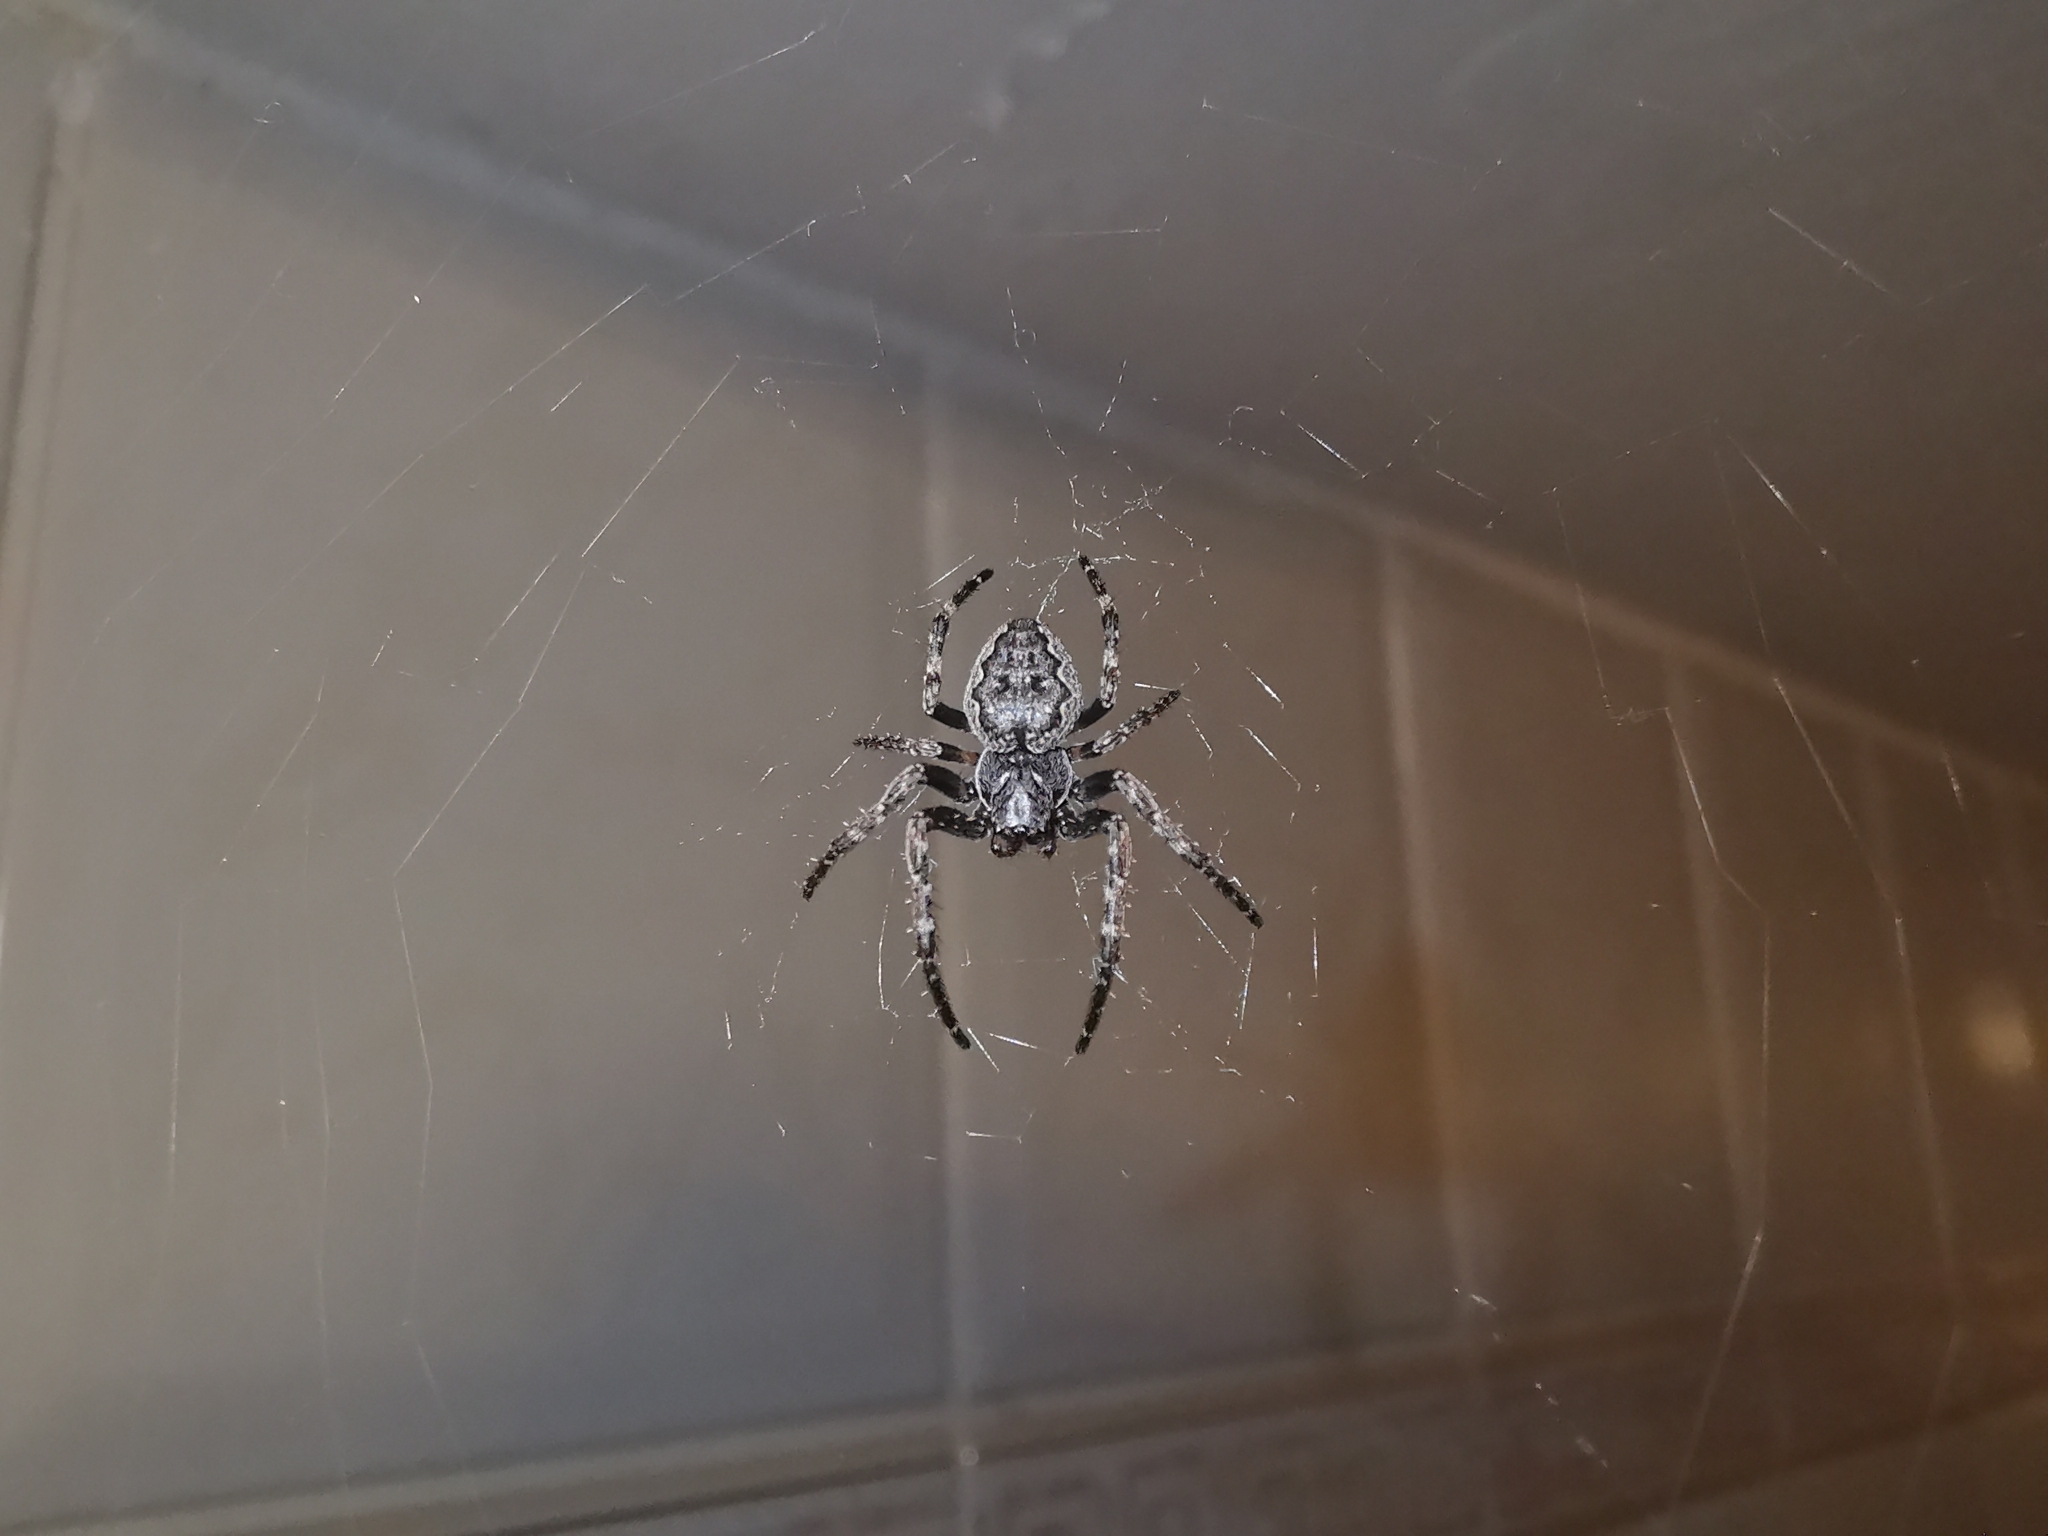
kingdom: Animalia
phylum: Arthropoda
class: Arachnida
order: Araneae
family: Araneidae
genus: Nuctenea
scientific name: Nuctenea umbratica
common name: Toad spider
